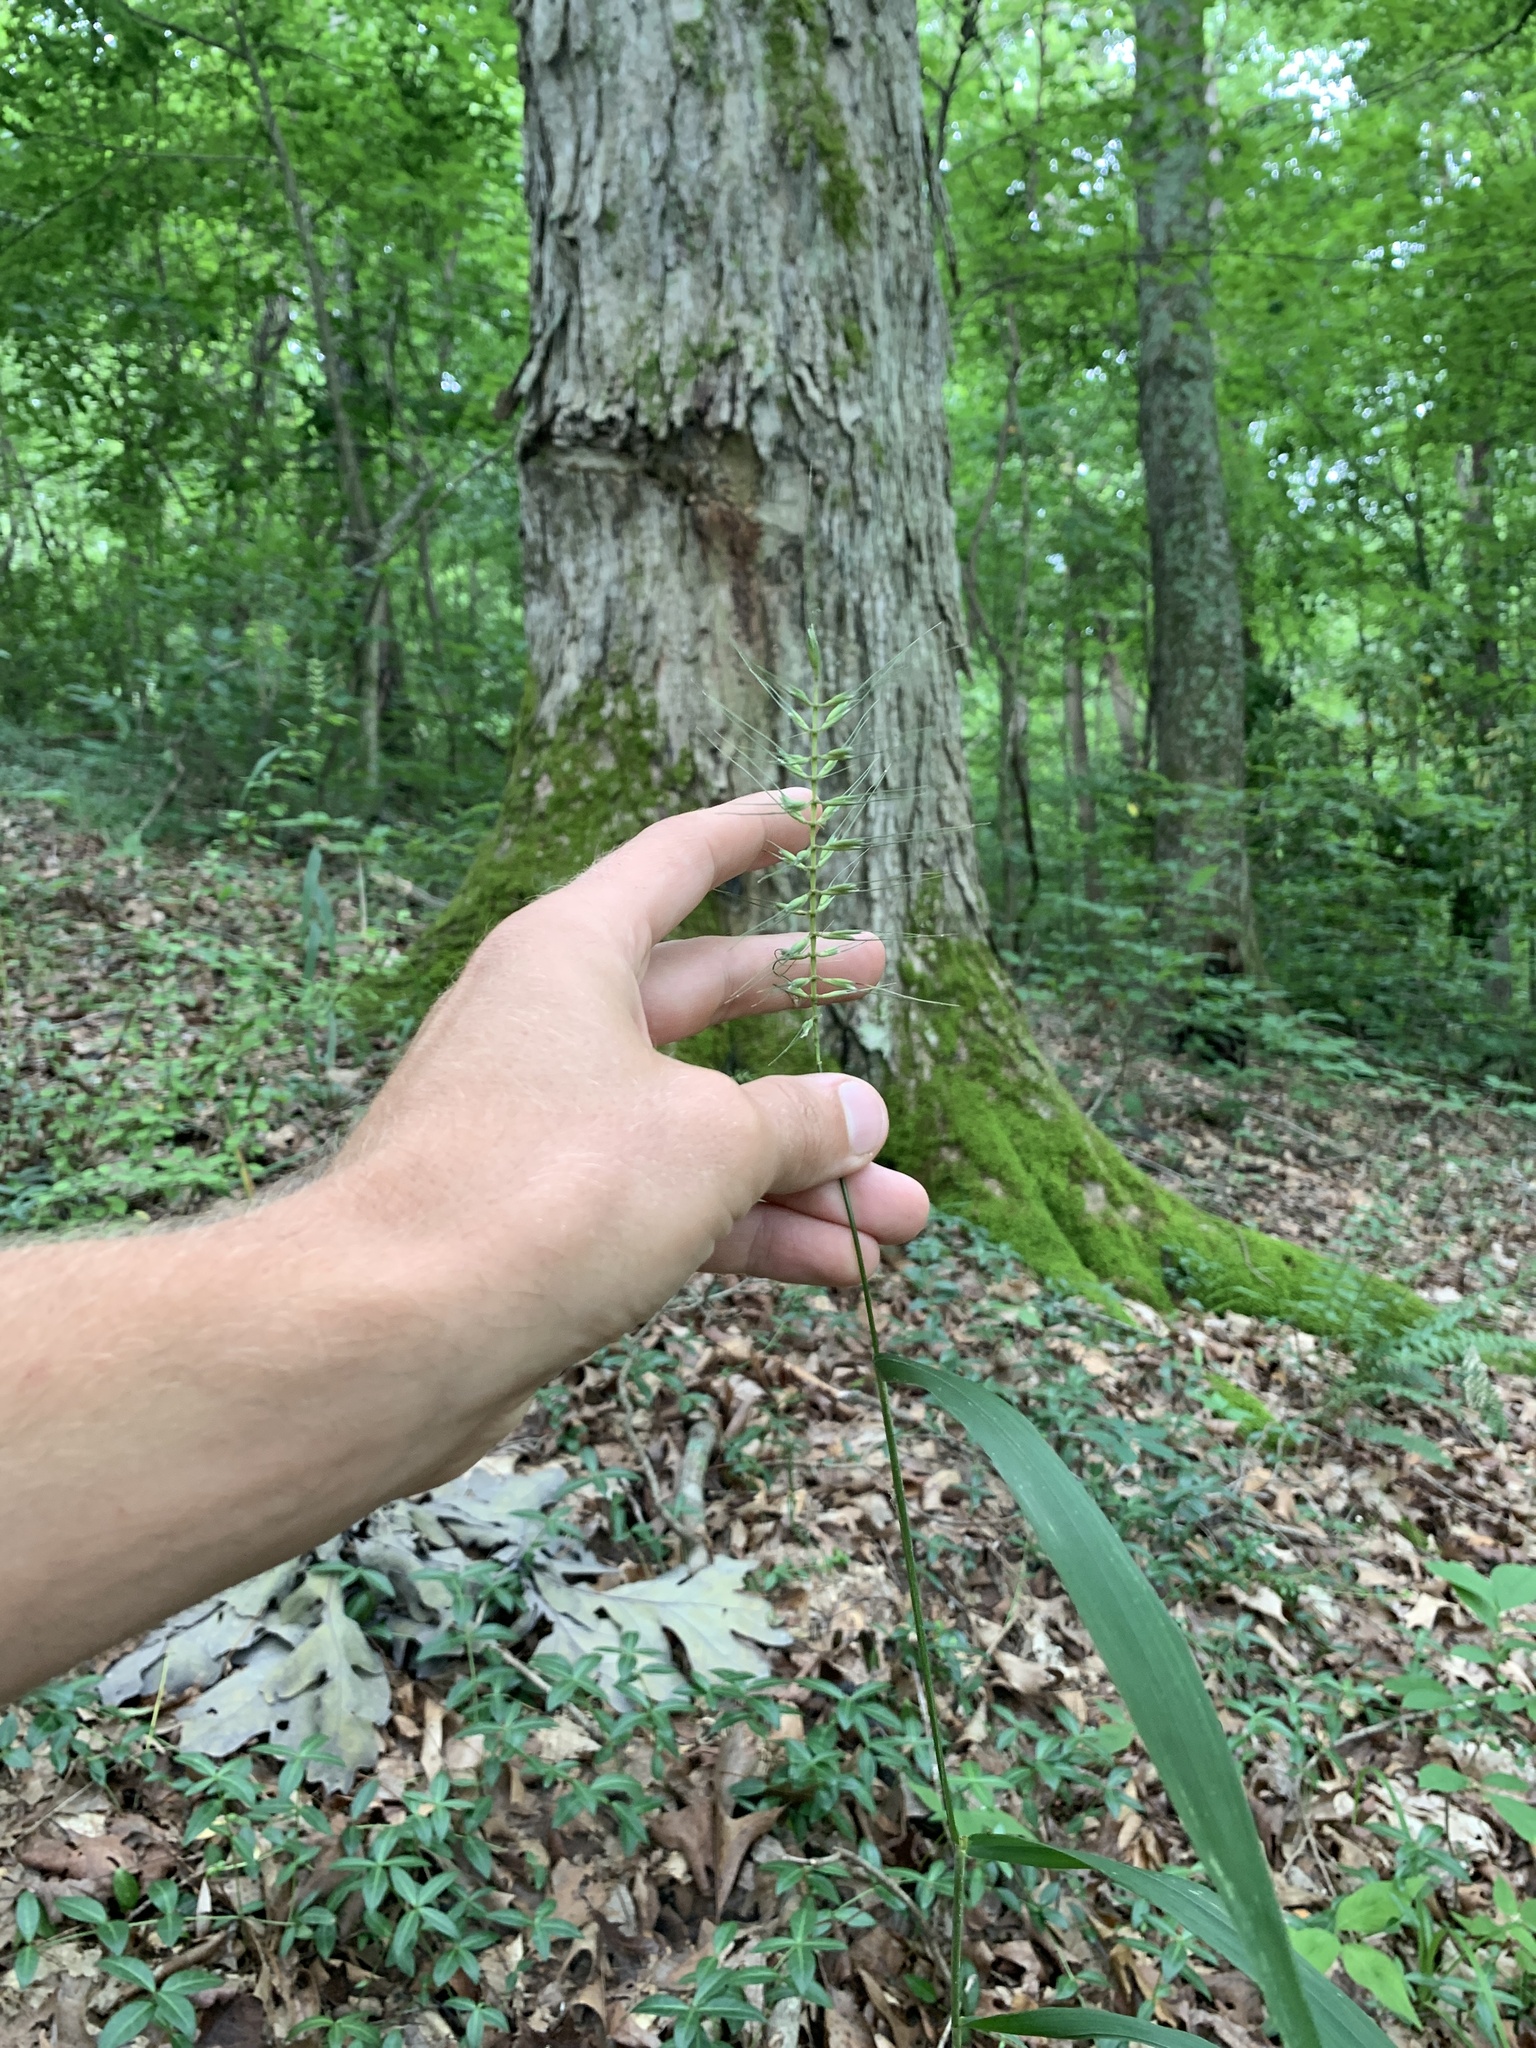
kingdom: Plantae
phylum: Tracheophyta
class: Liliopsida
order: Poales
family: Poaceae
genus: Elymus
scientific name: Elymus hystrix
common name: Bottlebrush grass
